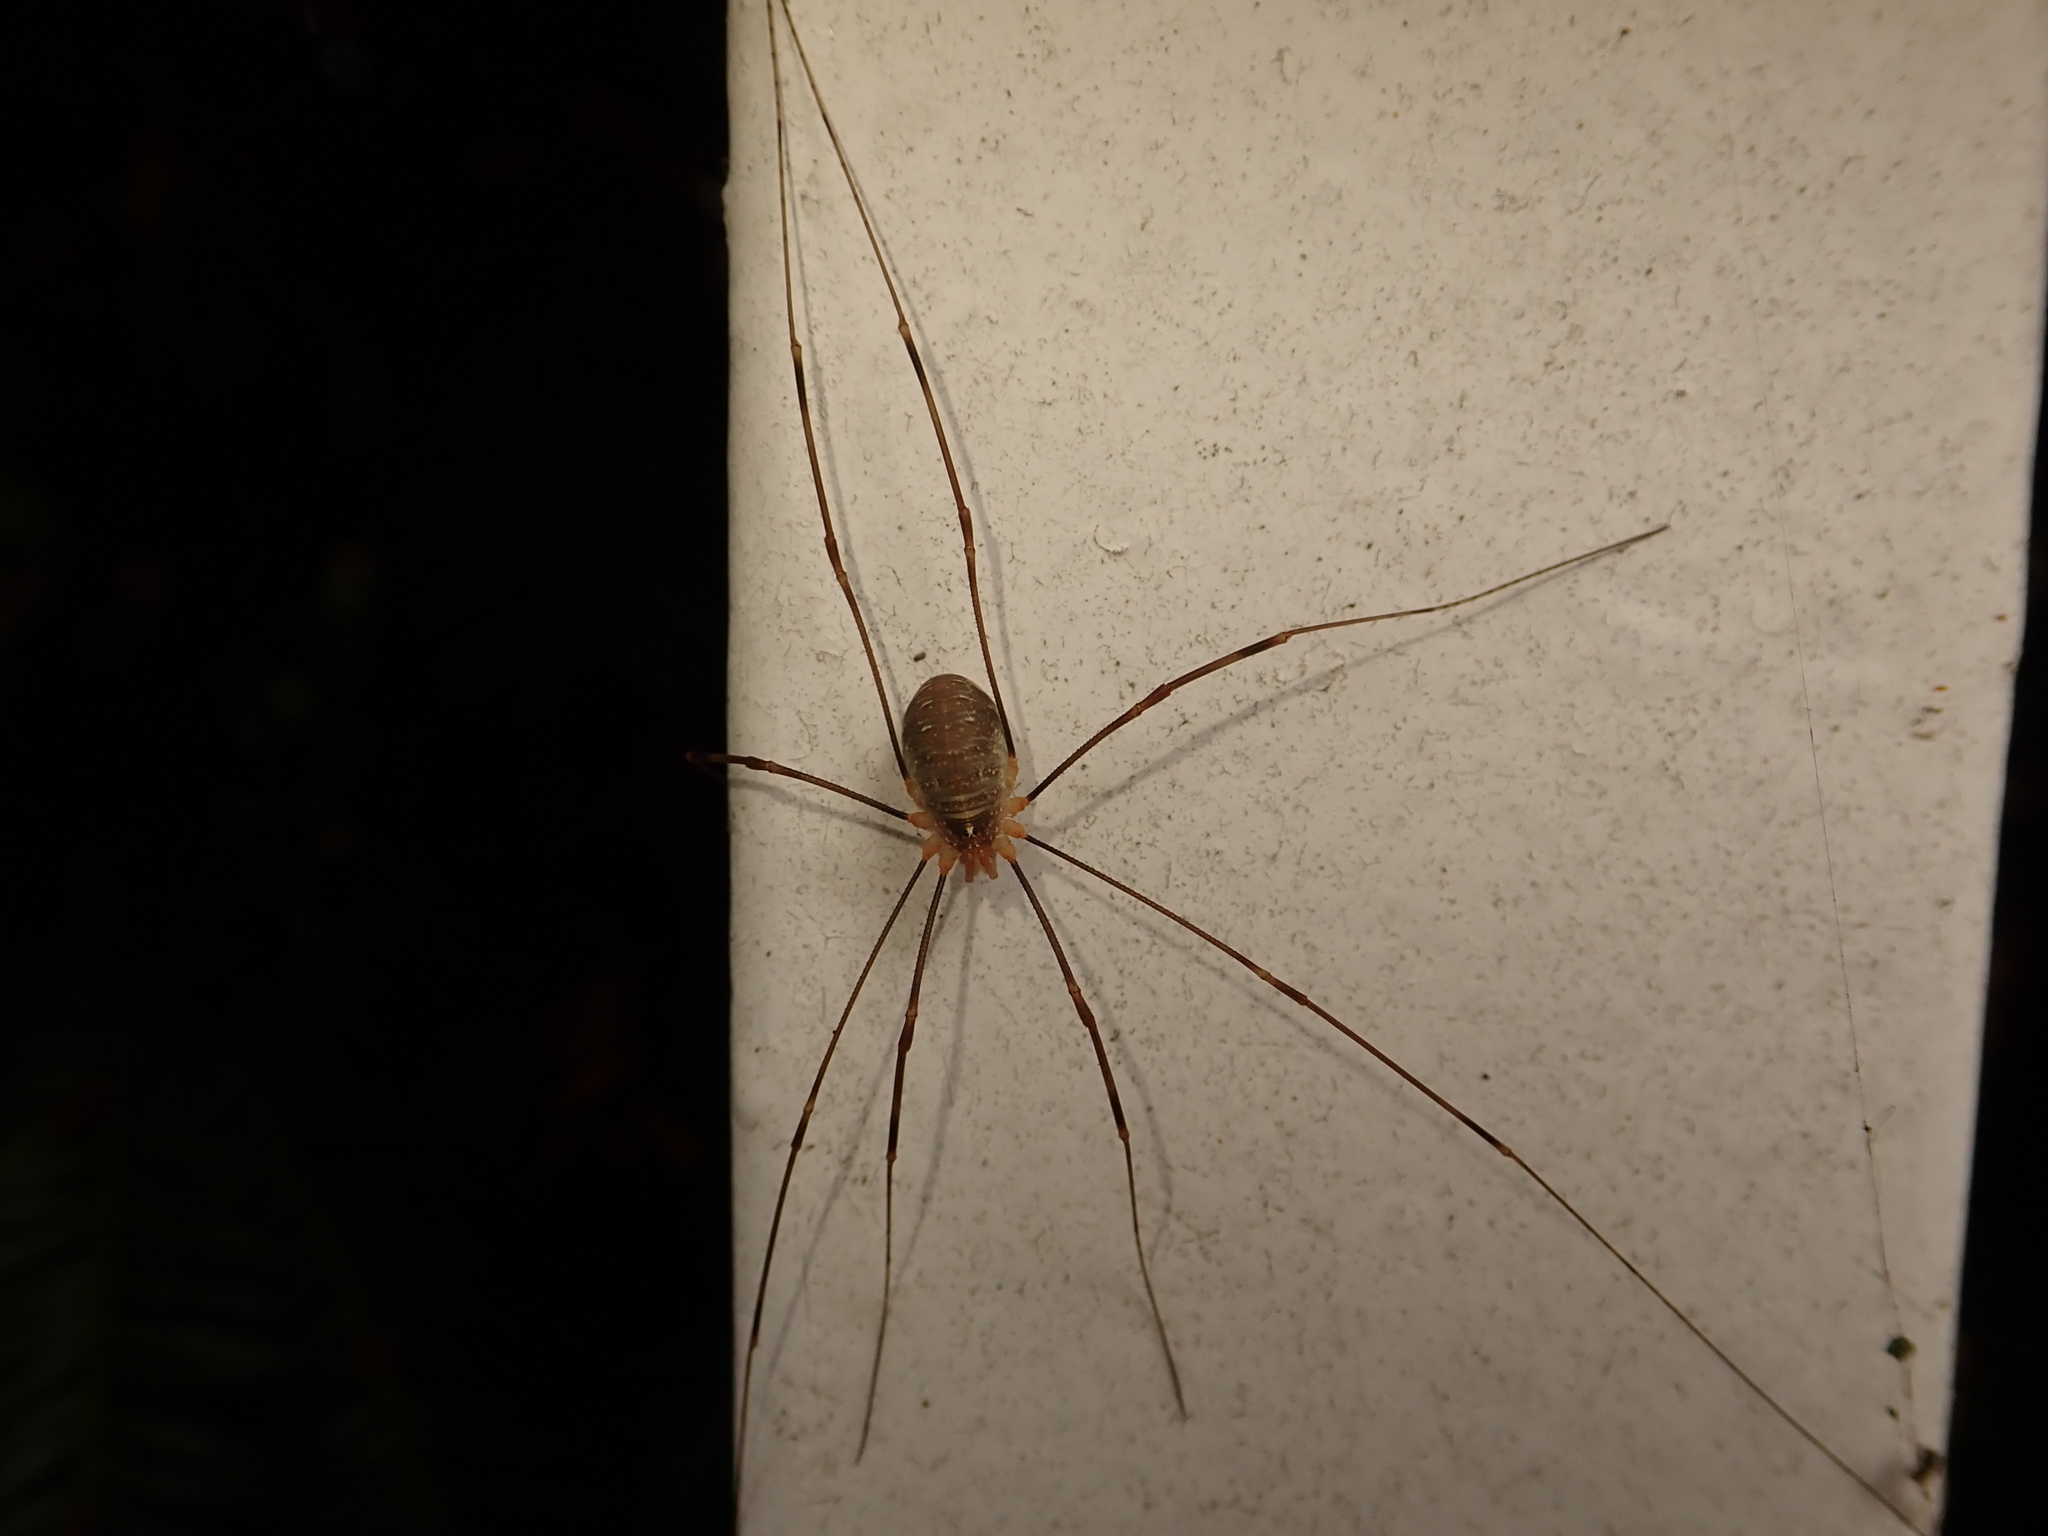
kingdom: Animalia
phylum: Arthropoda
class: Arachnida
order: Opiliones
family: Phalangiidae
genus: Opilio
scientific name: Opilio canestrinii
